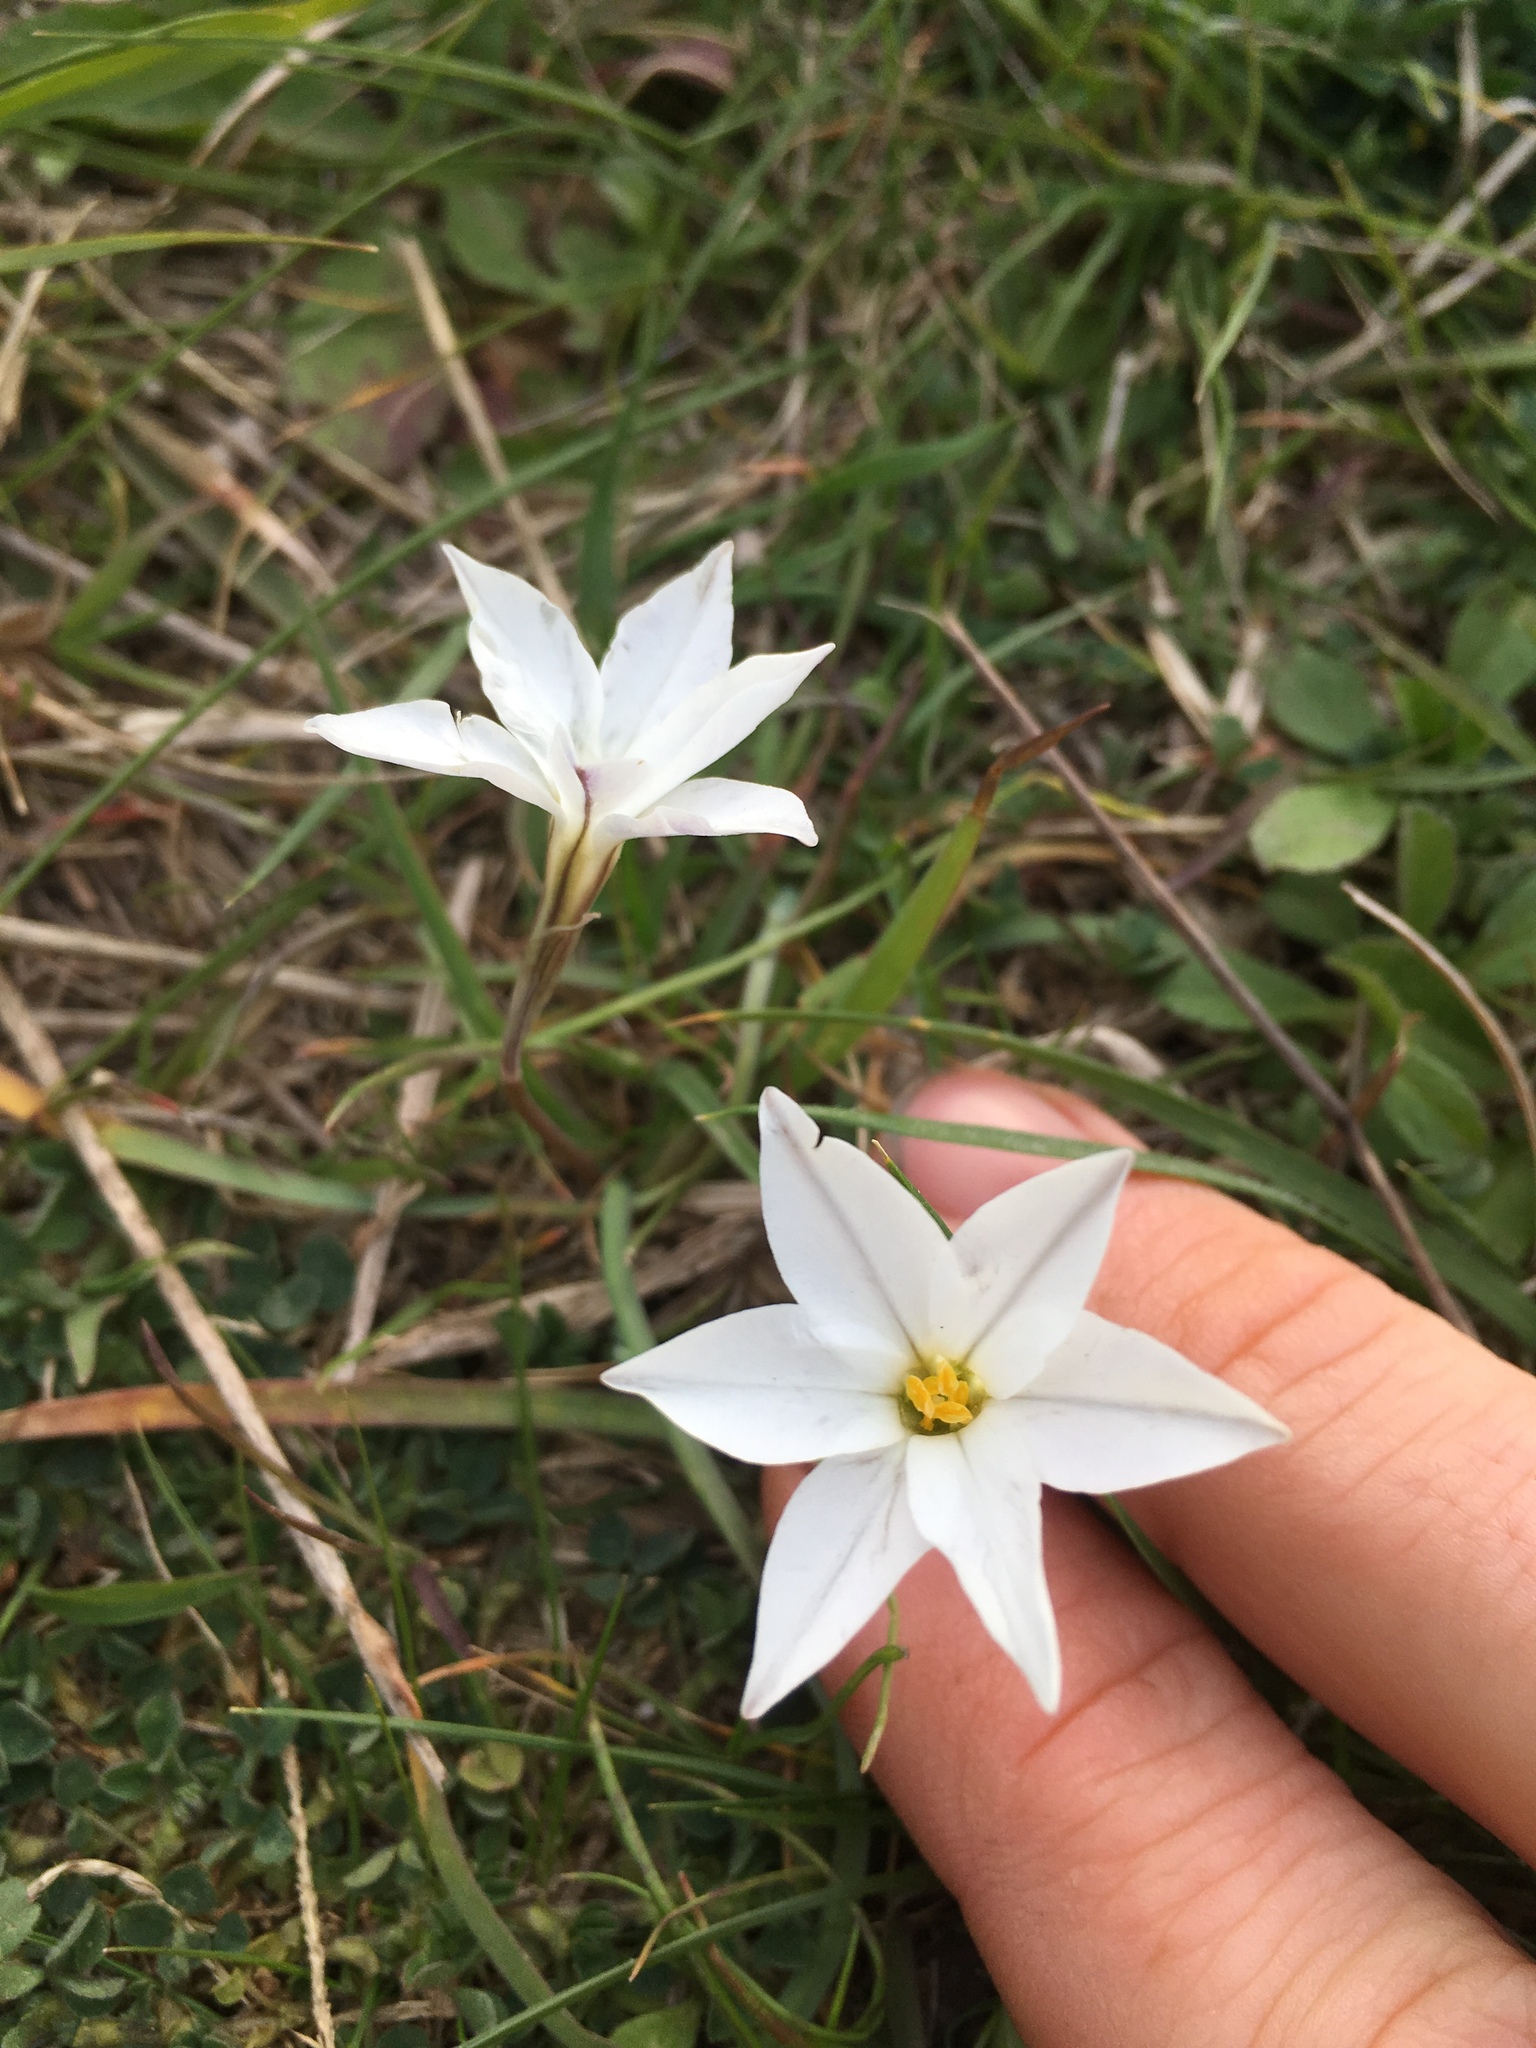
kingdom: Plantae
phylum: Tracheophyta
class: Liliopsida
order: Asparagales
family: Amaryllidaceae
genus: Ipheion
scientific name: Ipheion uniflorum
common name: Spring starflower
